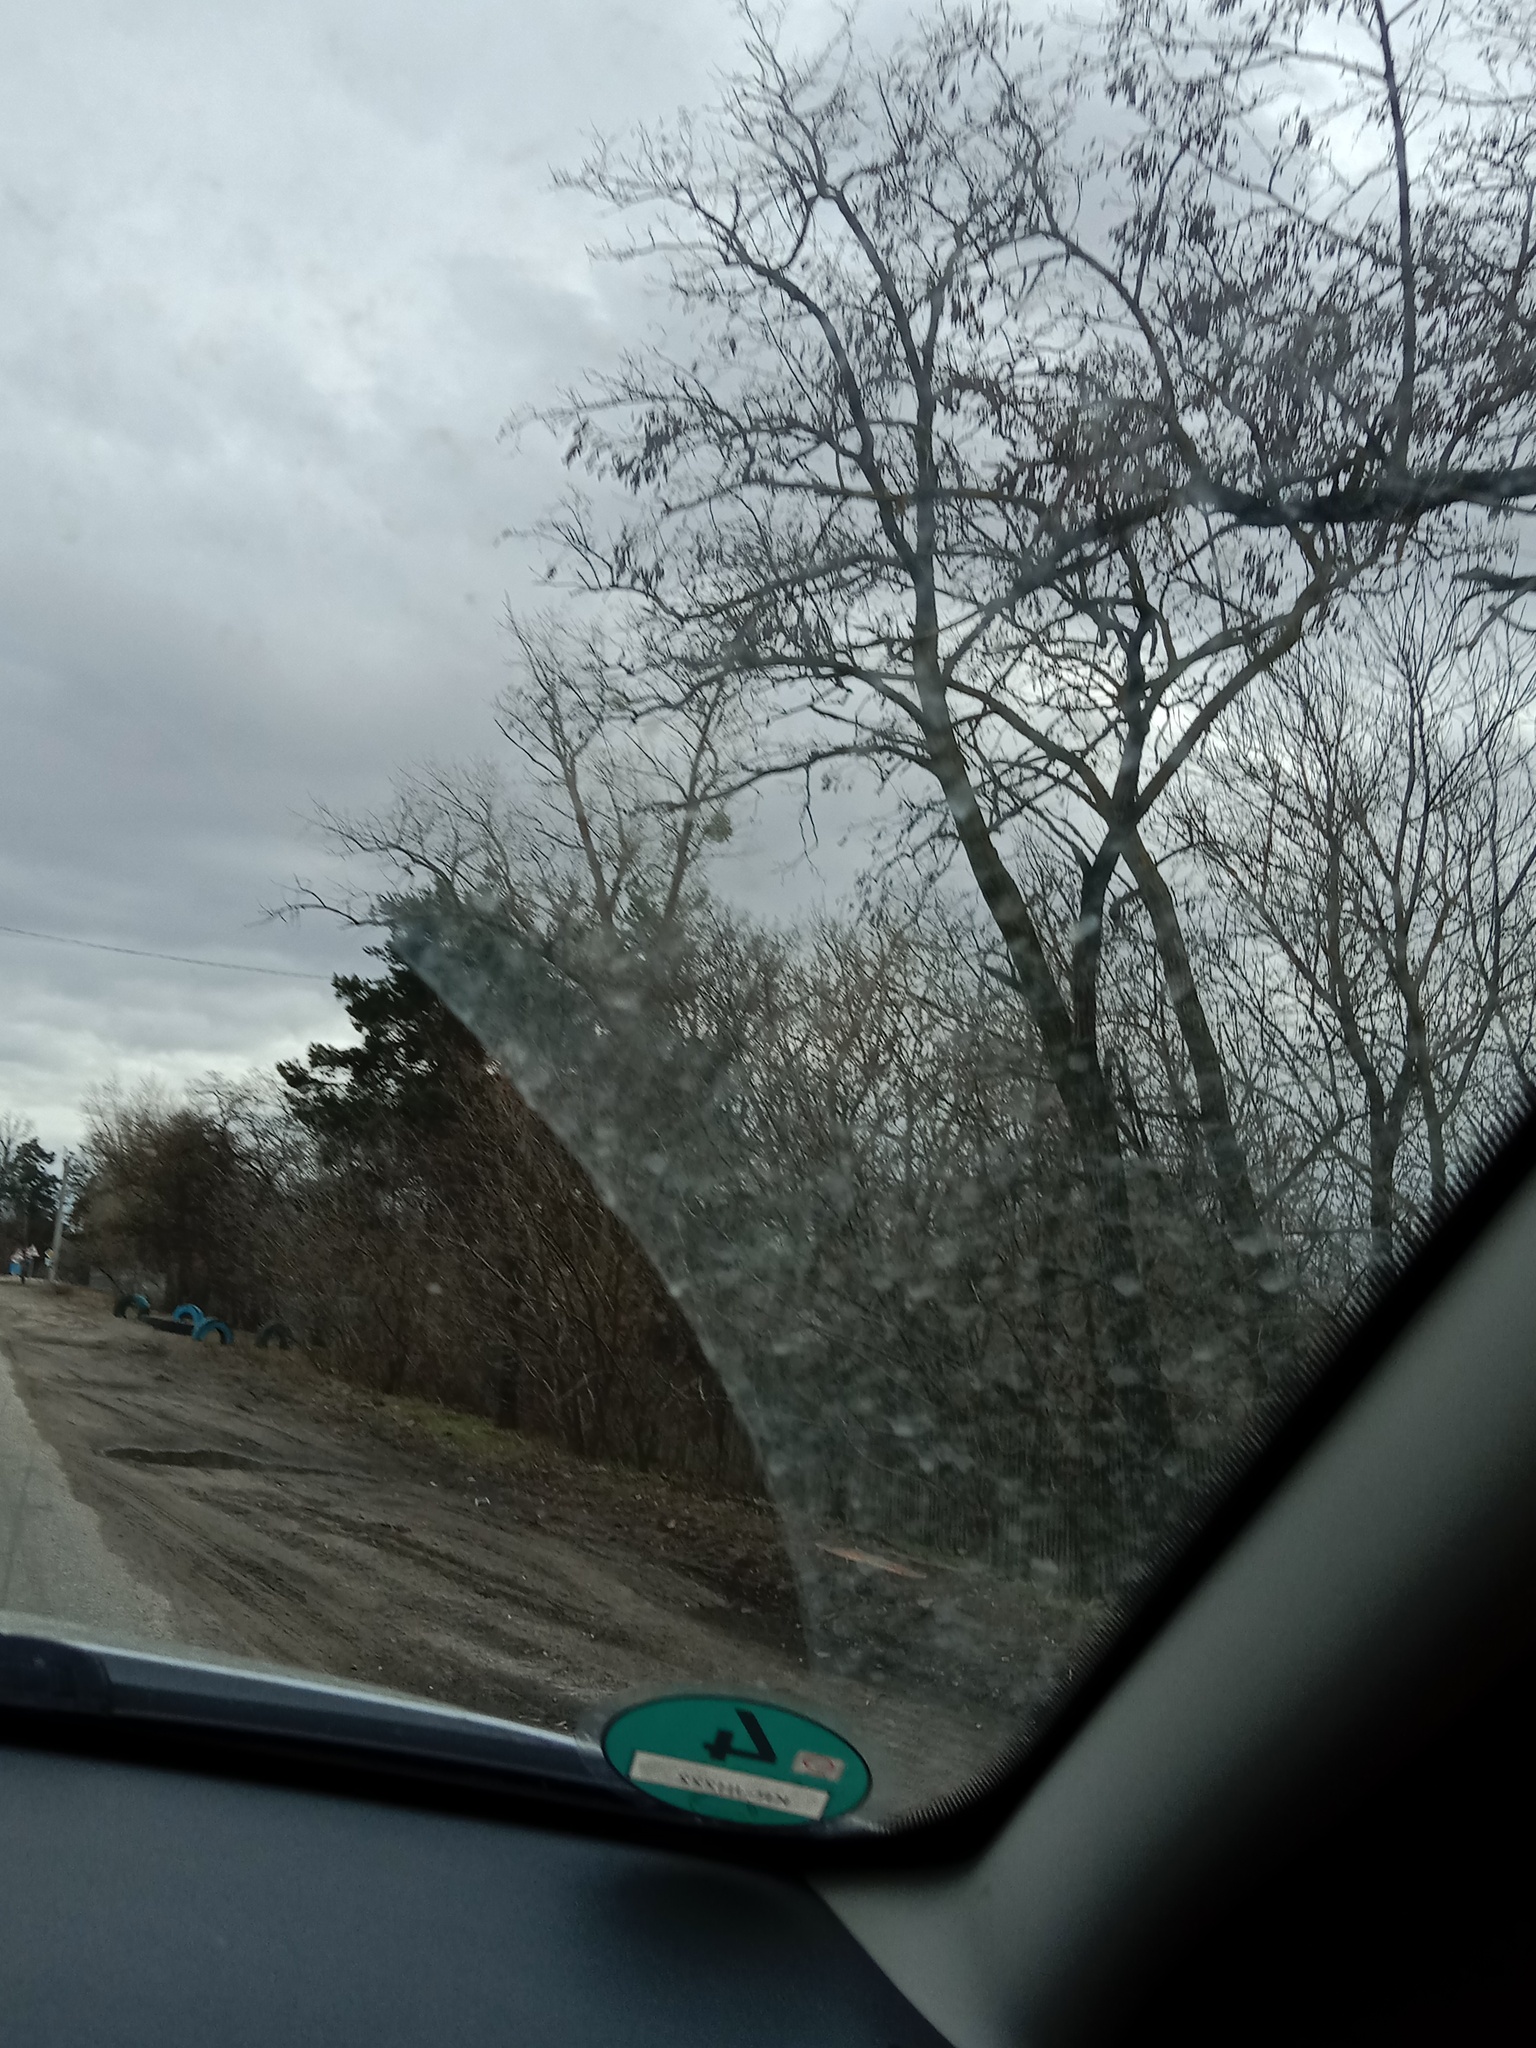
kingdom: Plantae
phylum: Tracheophyta
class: Magnoliopsida
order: Santalales
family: Viscaceae
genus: Viscum
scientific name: Viscum album
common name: Mistletoe
